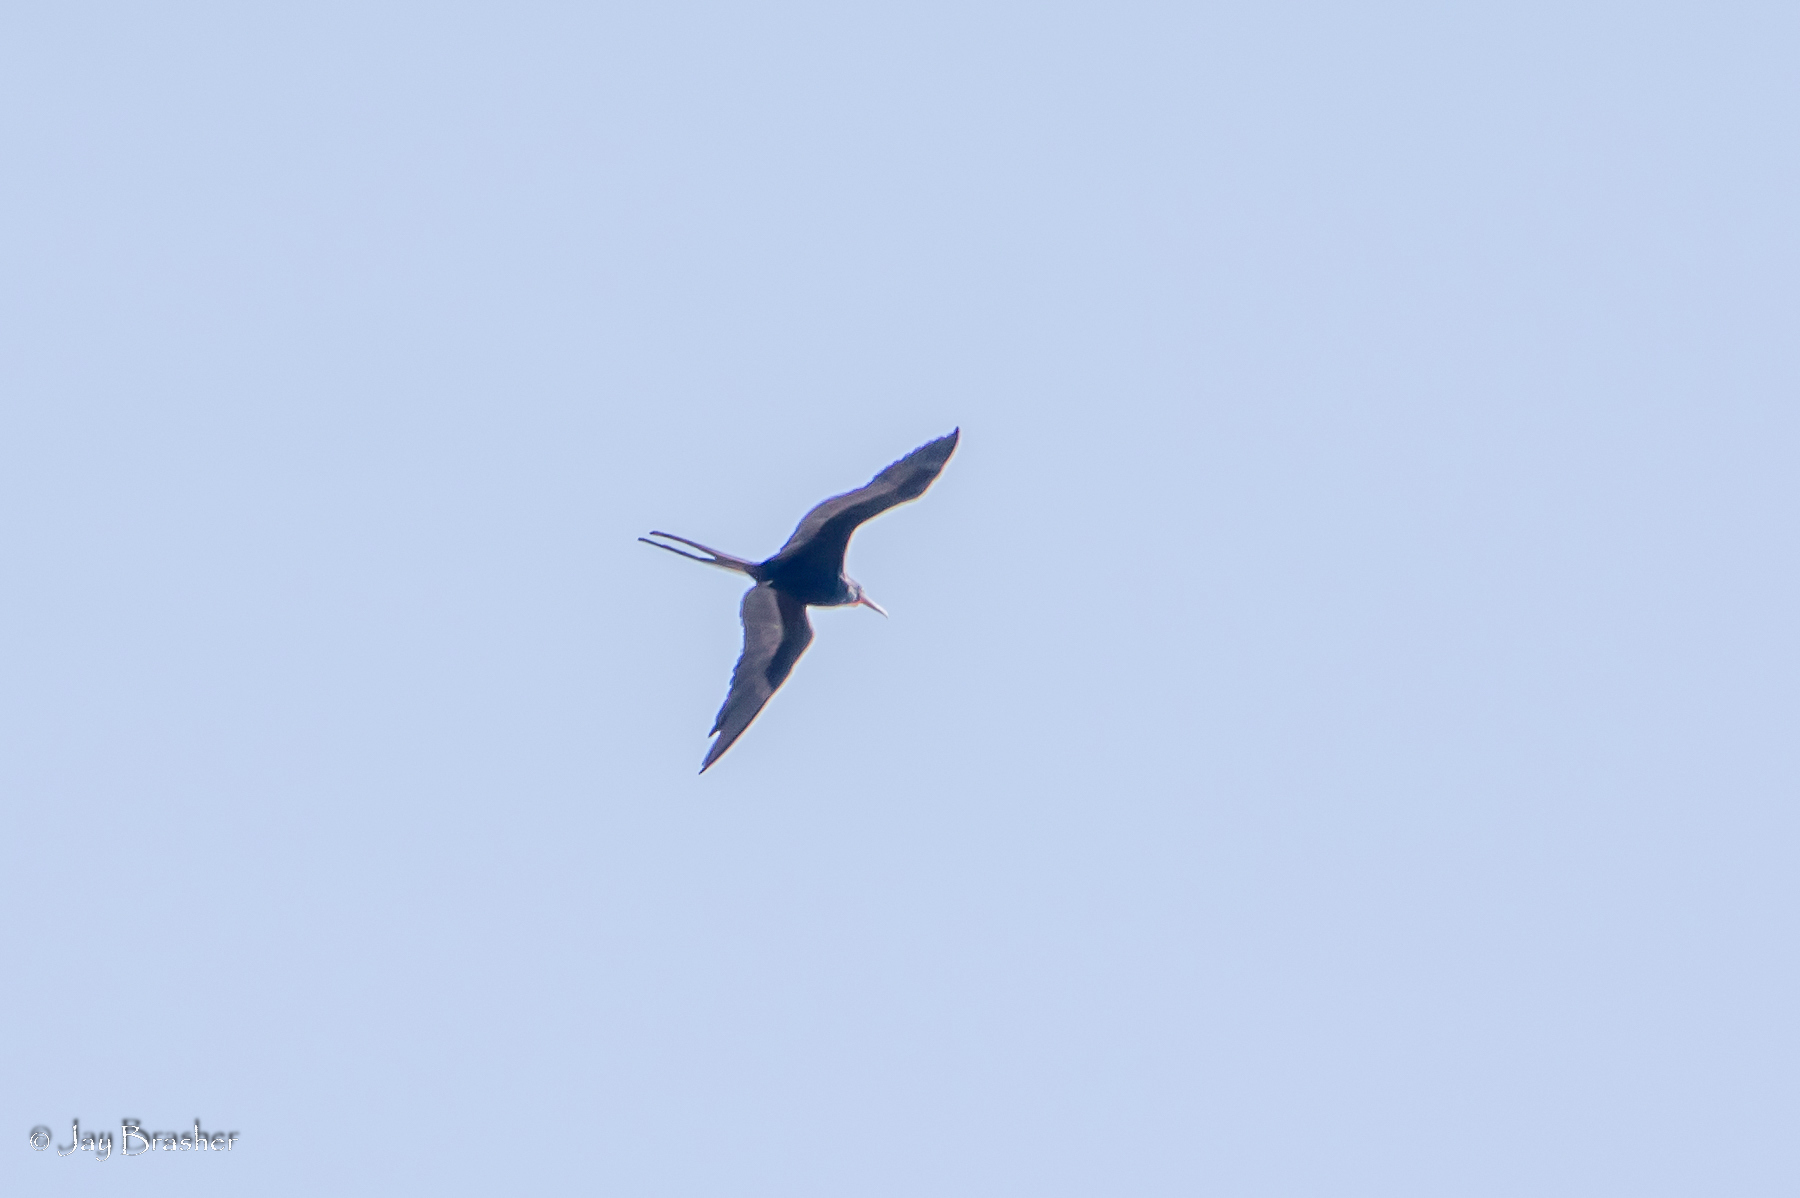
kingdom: Animalia
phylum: Chordata
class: Aves
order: Suliformes
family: Fregatidae
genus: Fregata
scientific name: Fregata magnificens
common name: Magnificent frigatebird
